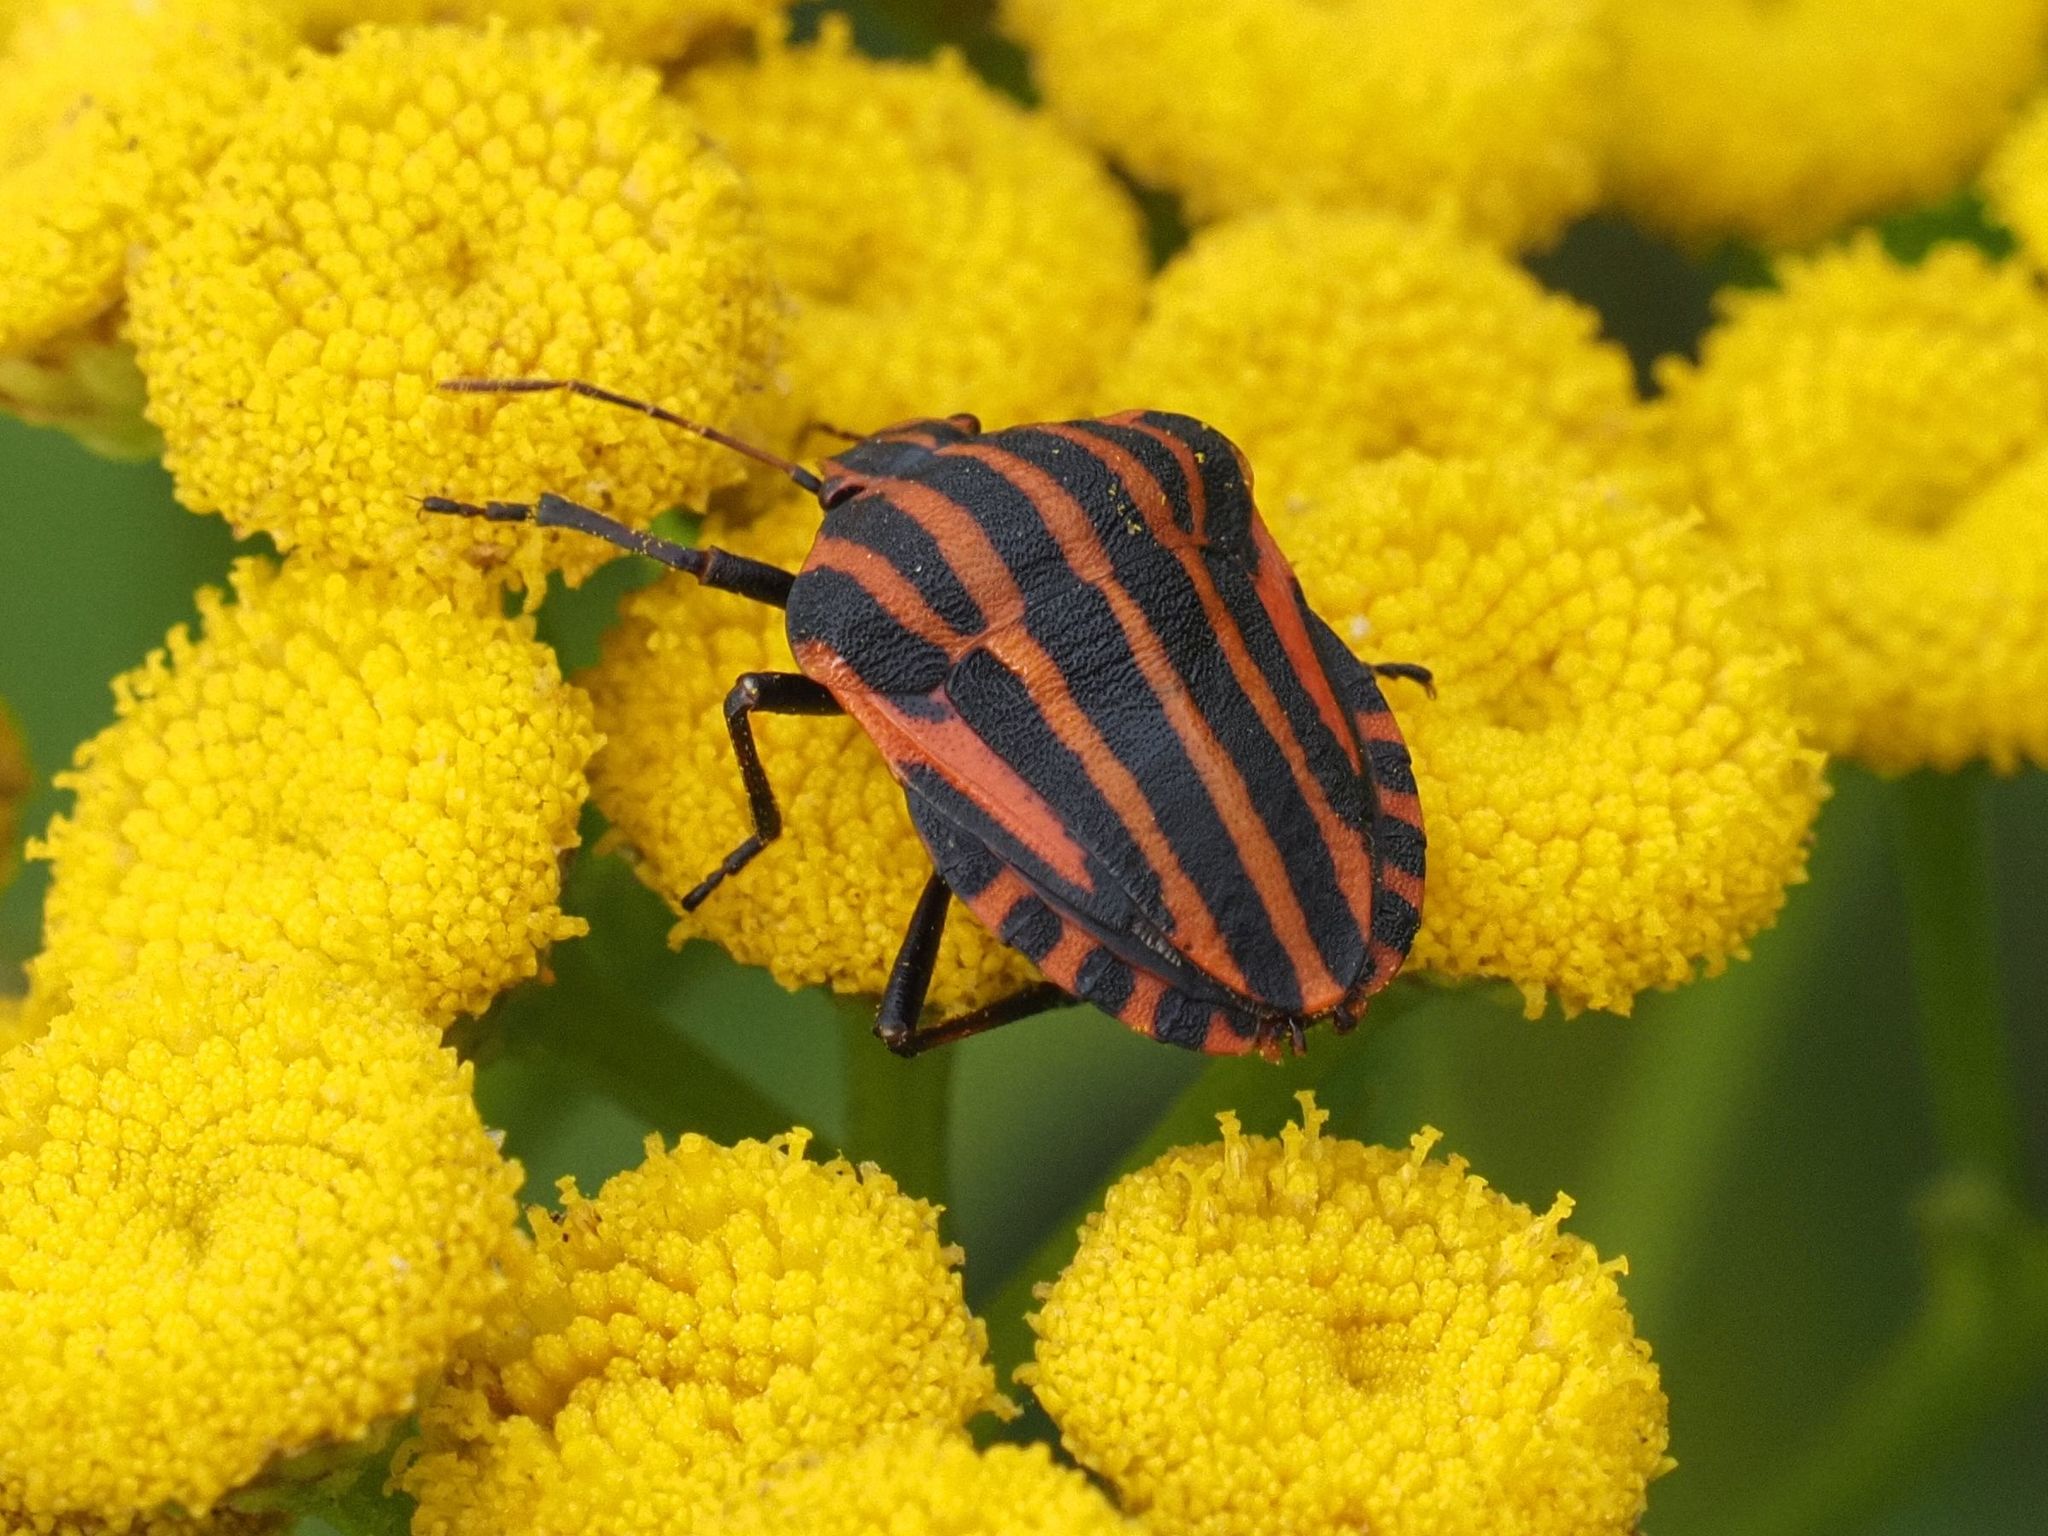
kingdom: Animalia
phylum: Arthropoda
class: Insecta
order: Hemiptera
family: Pentatomidae
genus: Graphosoma
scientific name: Graphosoma italicum
